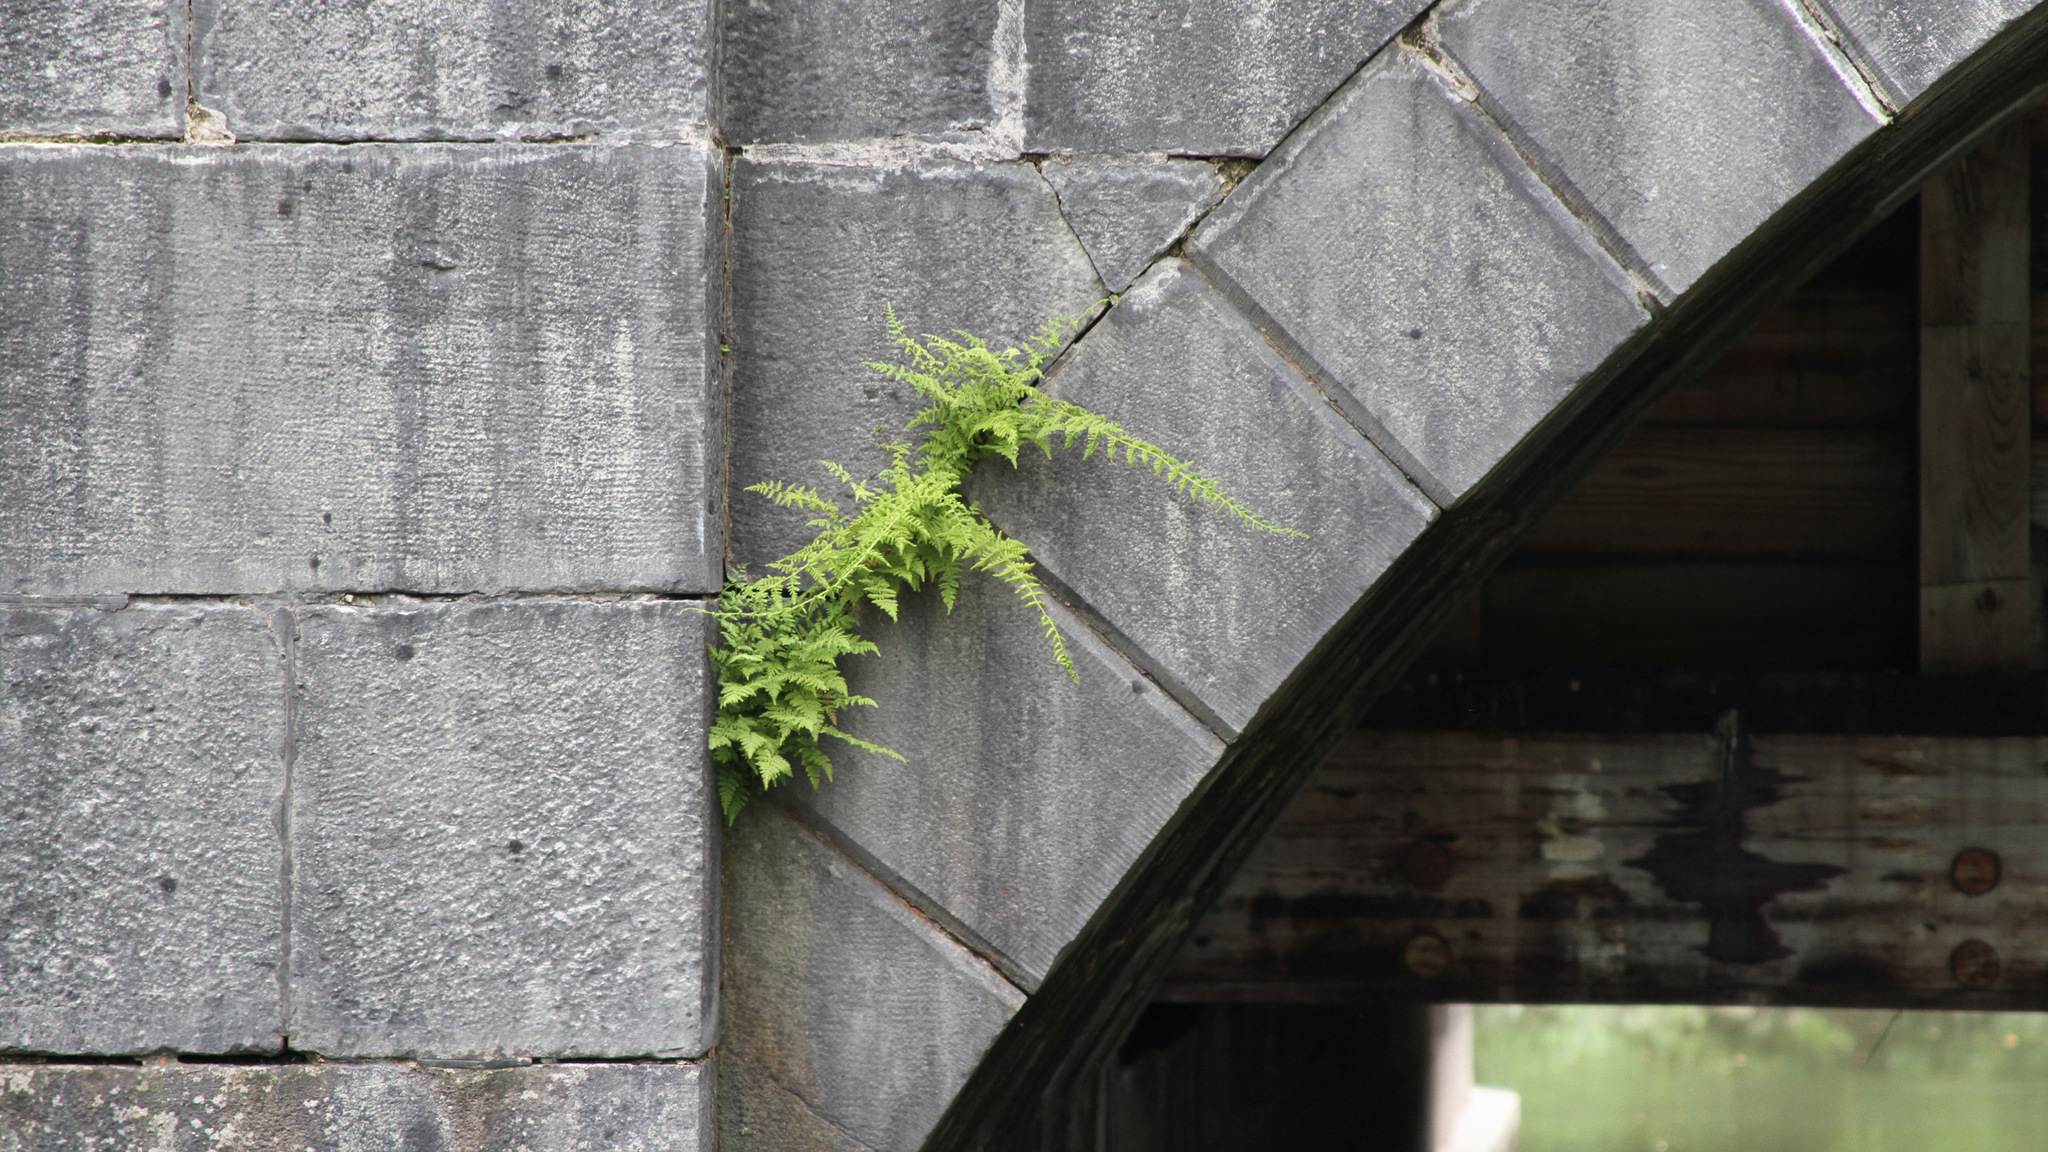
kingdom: Plantae
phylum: Tracheophyta
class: Polypodiopsida
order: Polypodiales
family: Cystopteridaceae
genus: Cystopteris
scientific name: Cystopteris bulbifera
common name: Bulblet bladder fern
